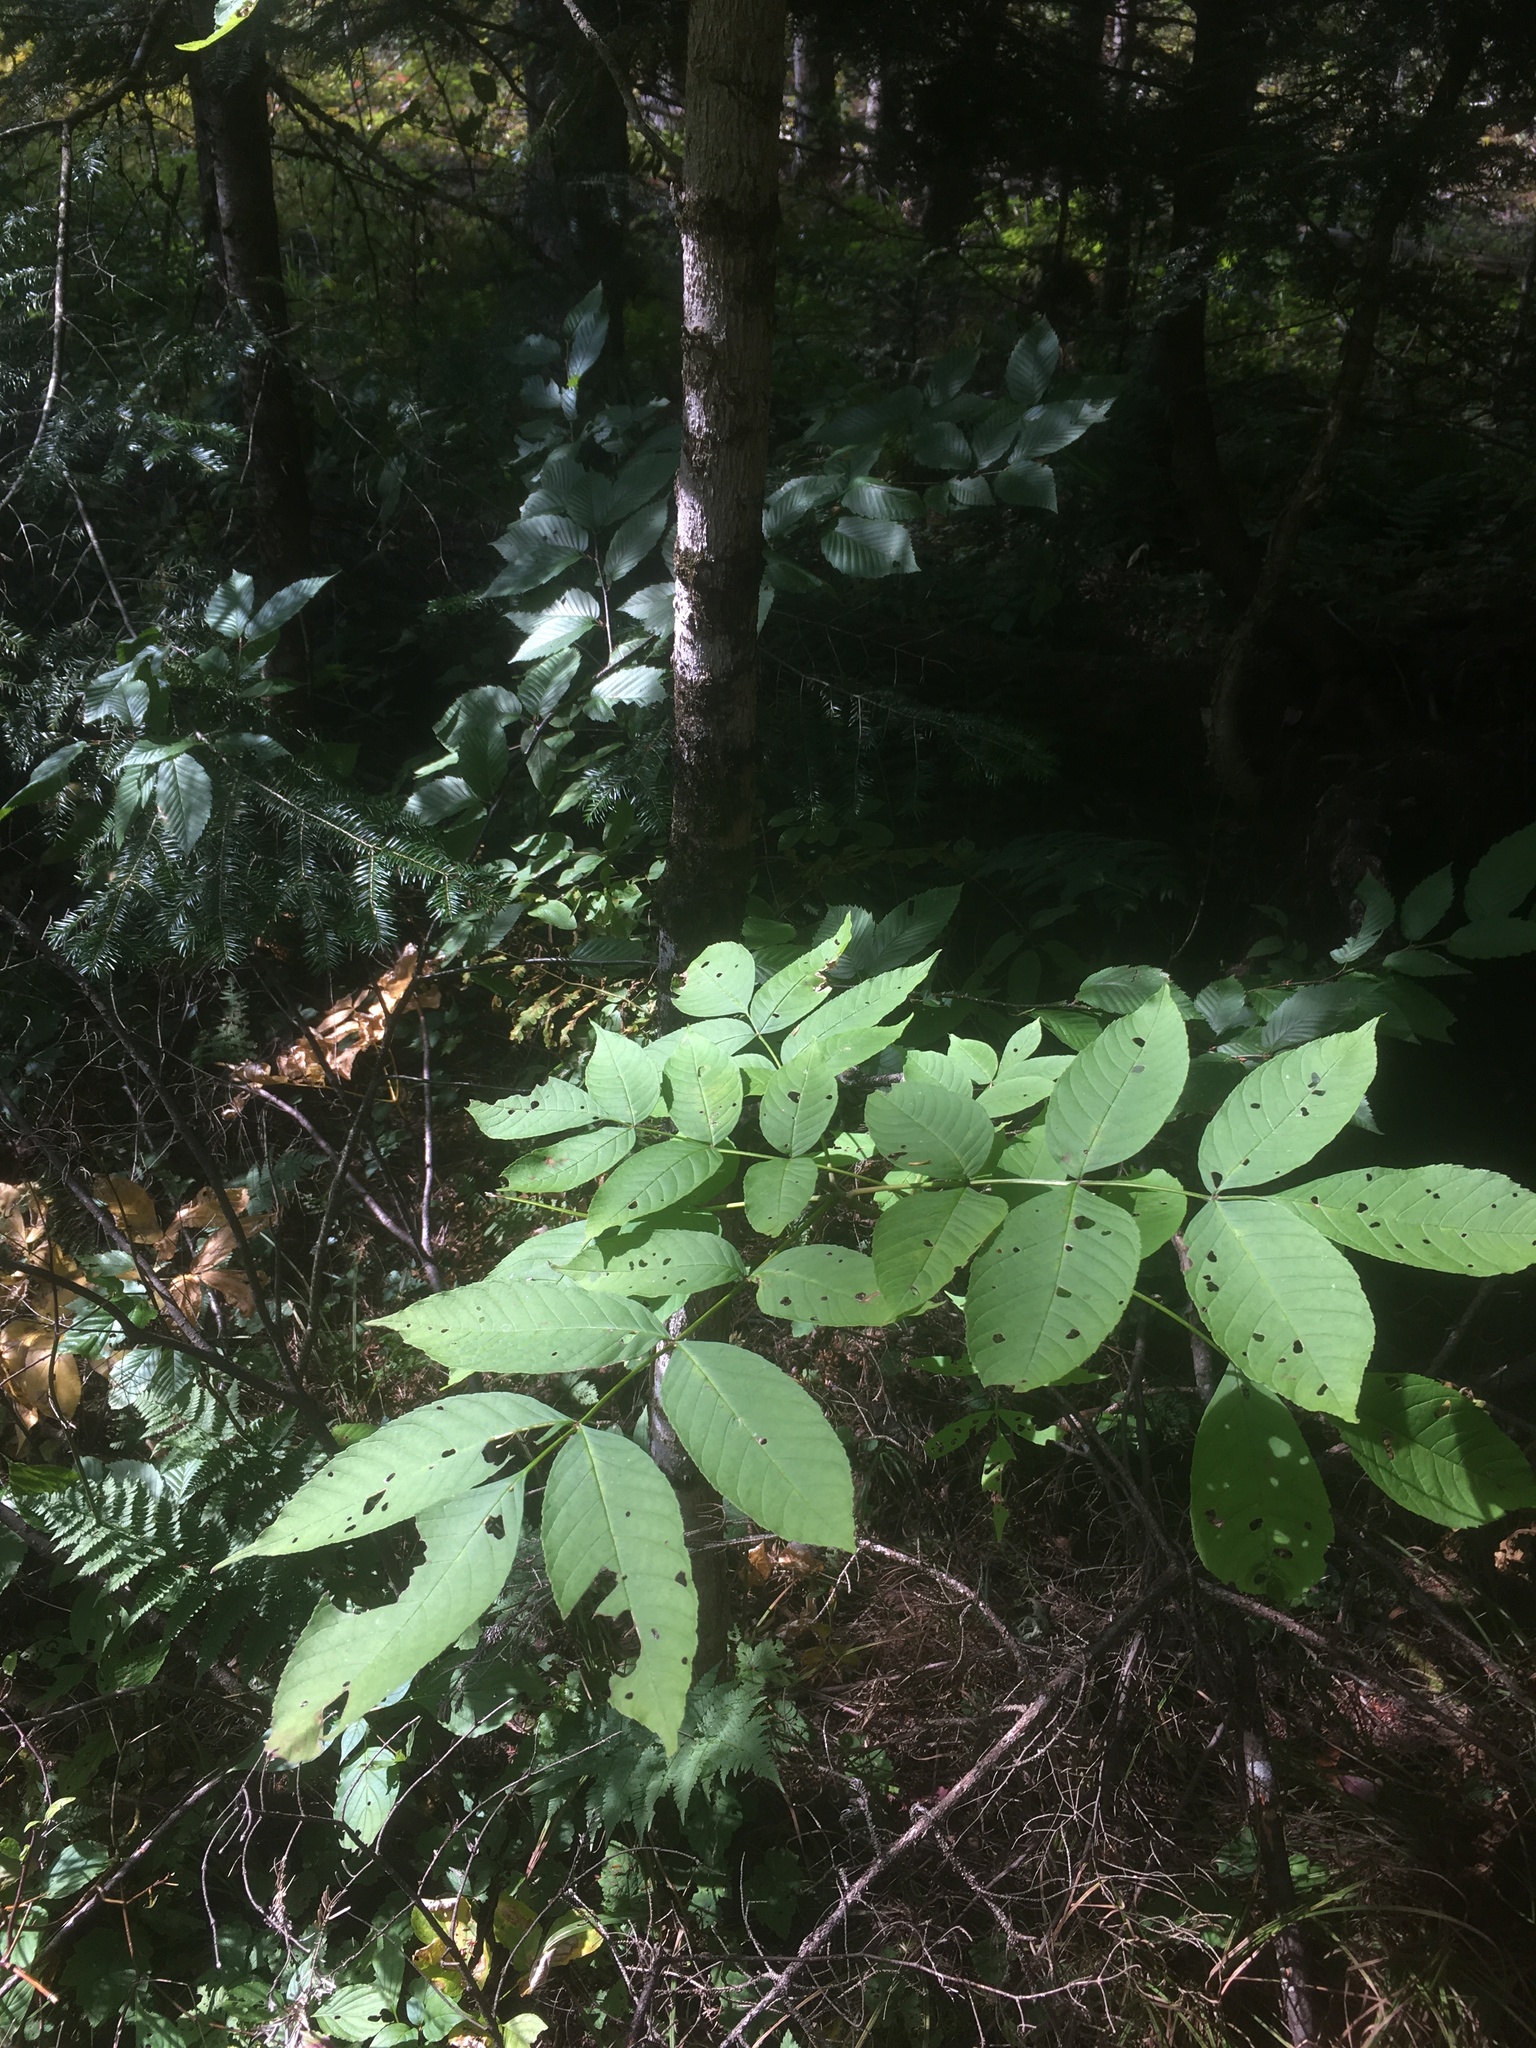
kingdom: Plantae
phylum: Tracheophyta
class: Magnoliopsida
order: Lamiales
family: Oleaceae
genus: Fraxinus
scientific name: Fraxinus nigra
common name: Black ash
